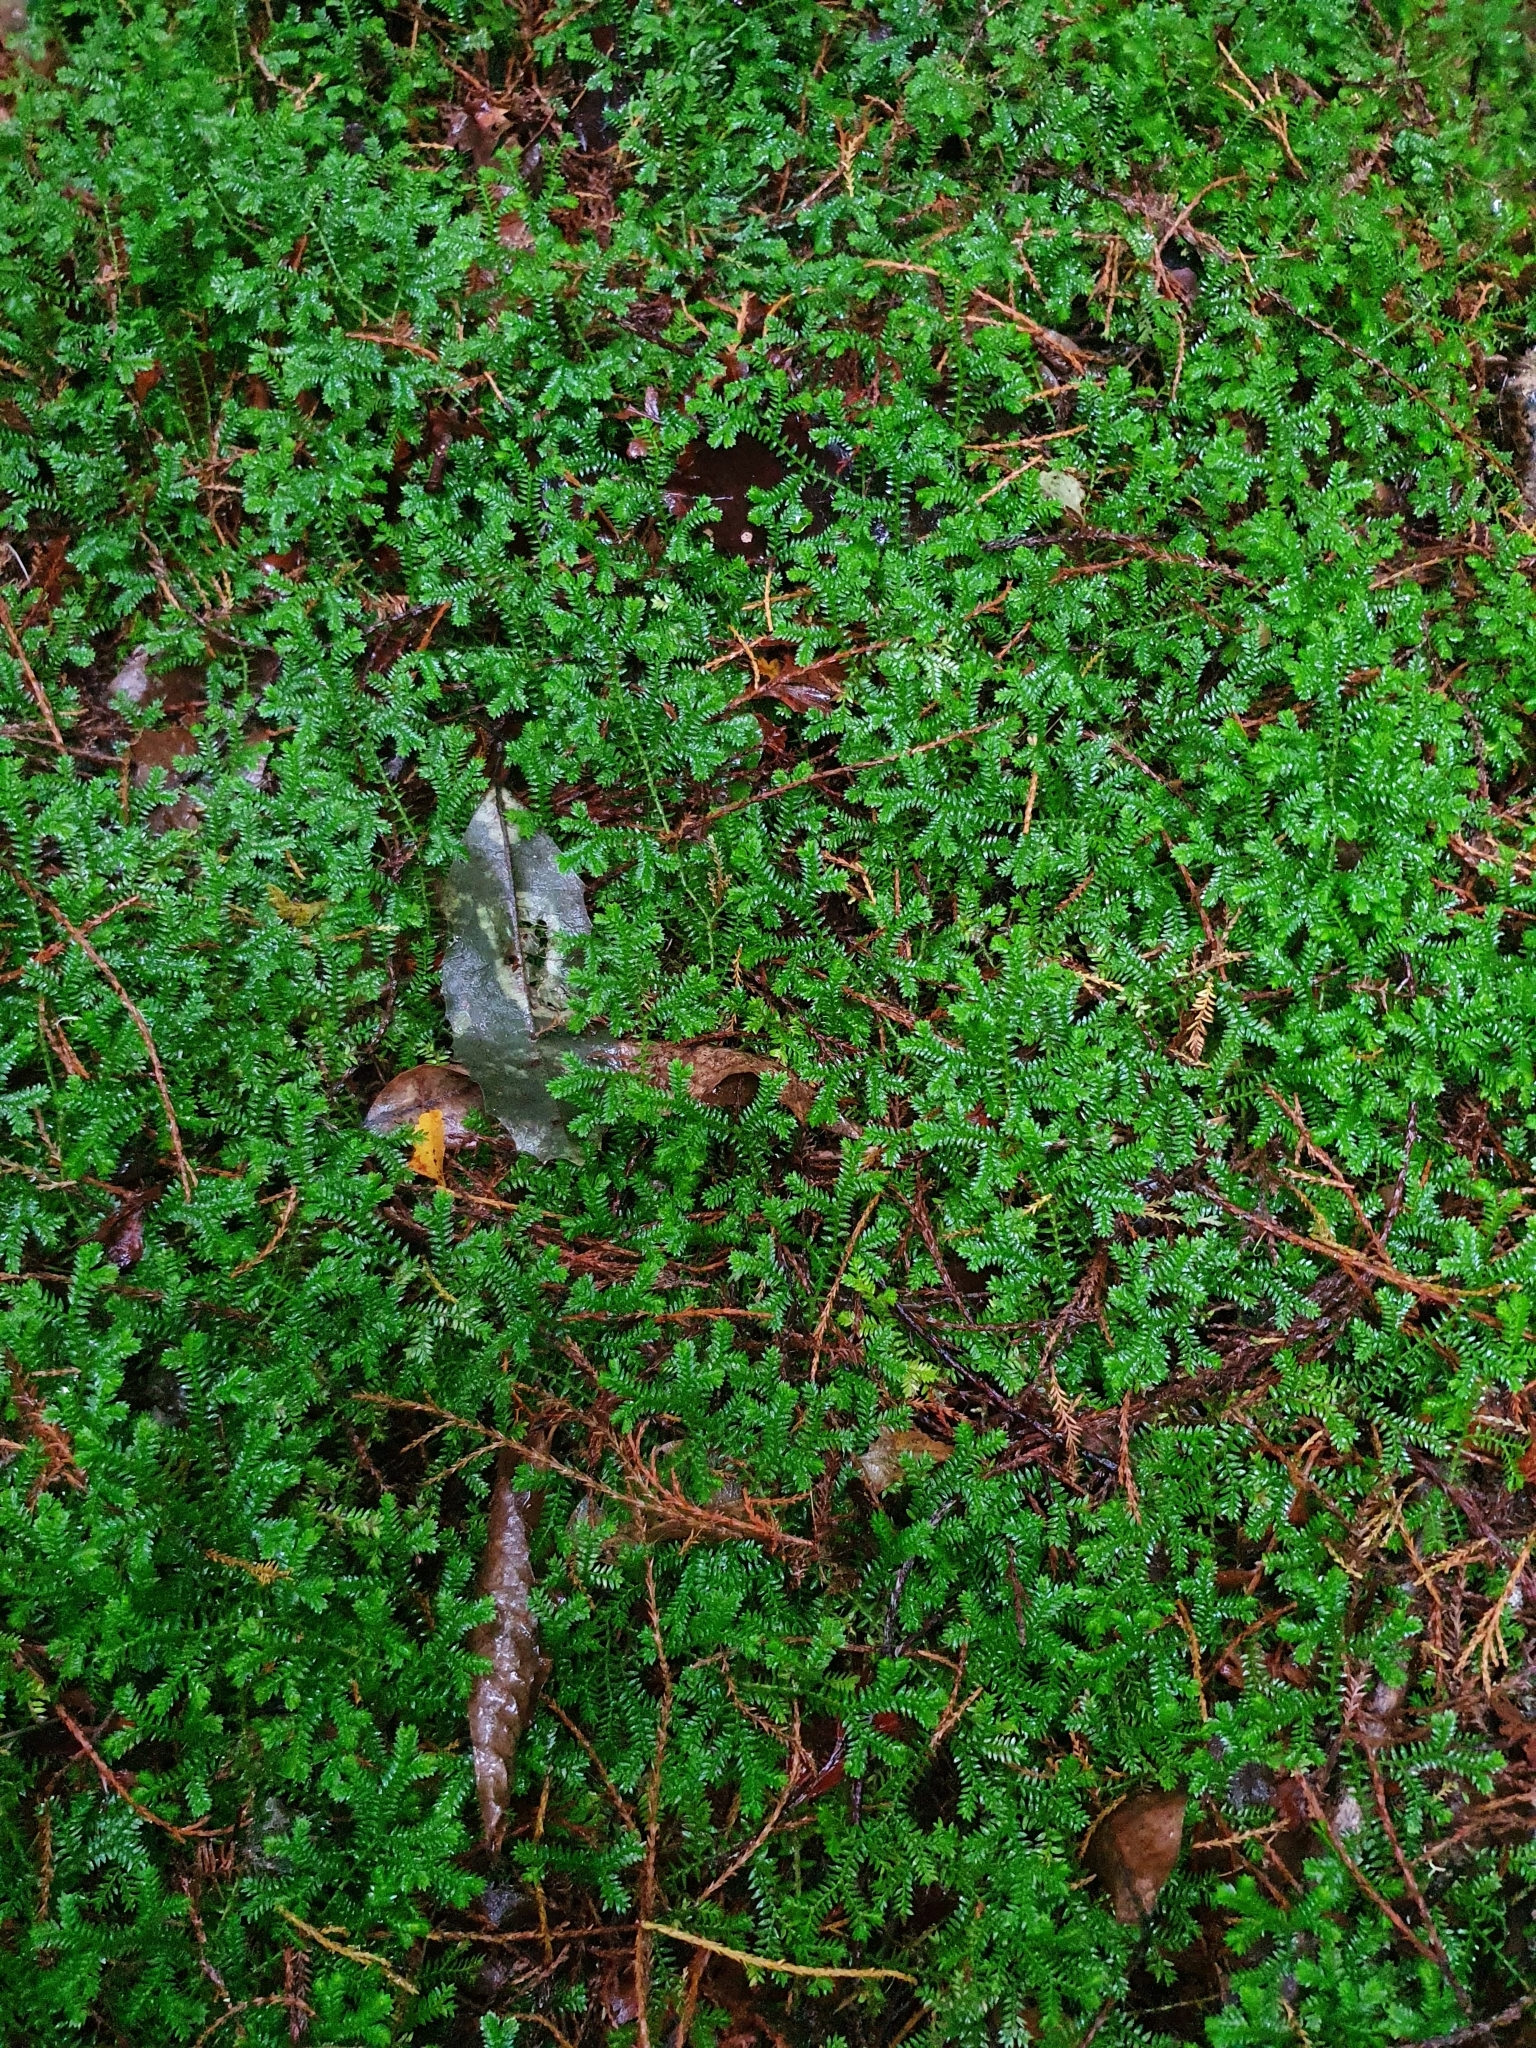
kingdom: Plantae
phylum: Tracheophyta
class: Lycopodiopsida
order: Selaginellales
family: Selaginellaceae
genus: Selaginella
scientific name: Selaginella kraussiana
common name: Krauss' spikemoss
